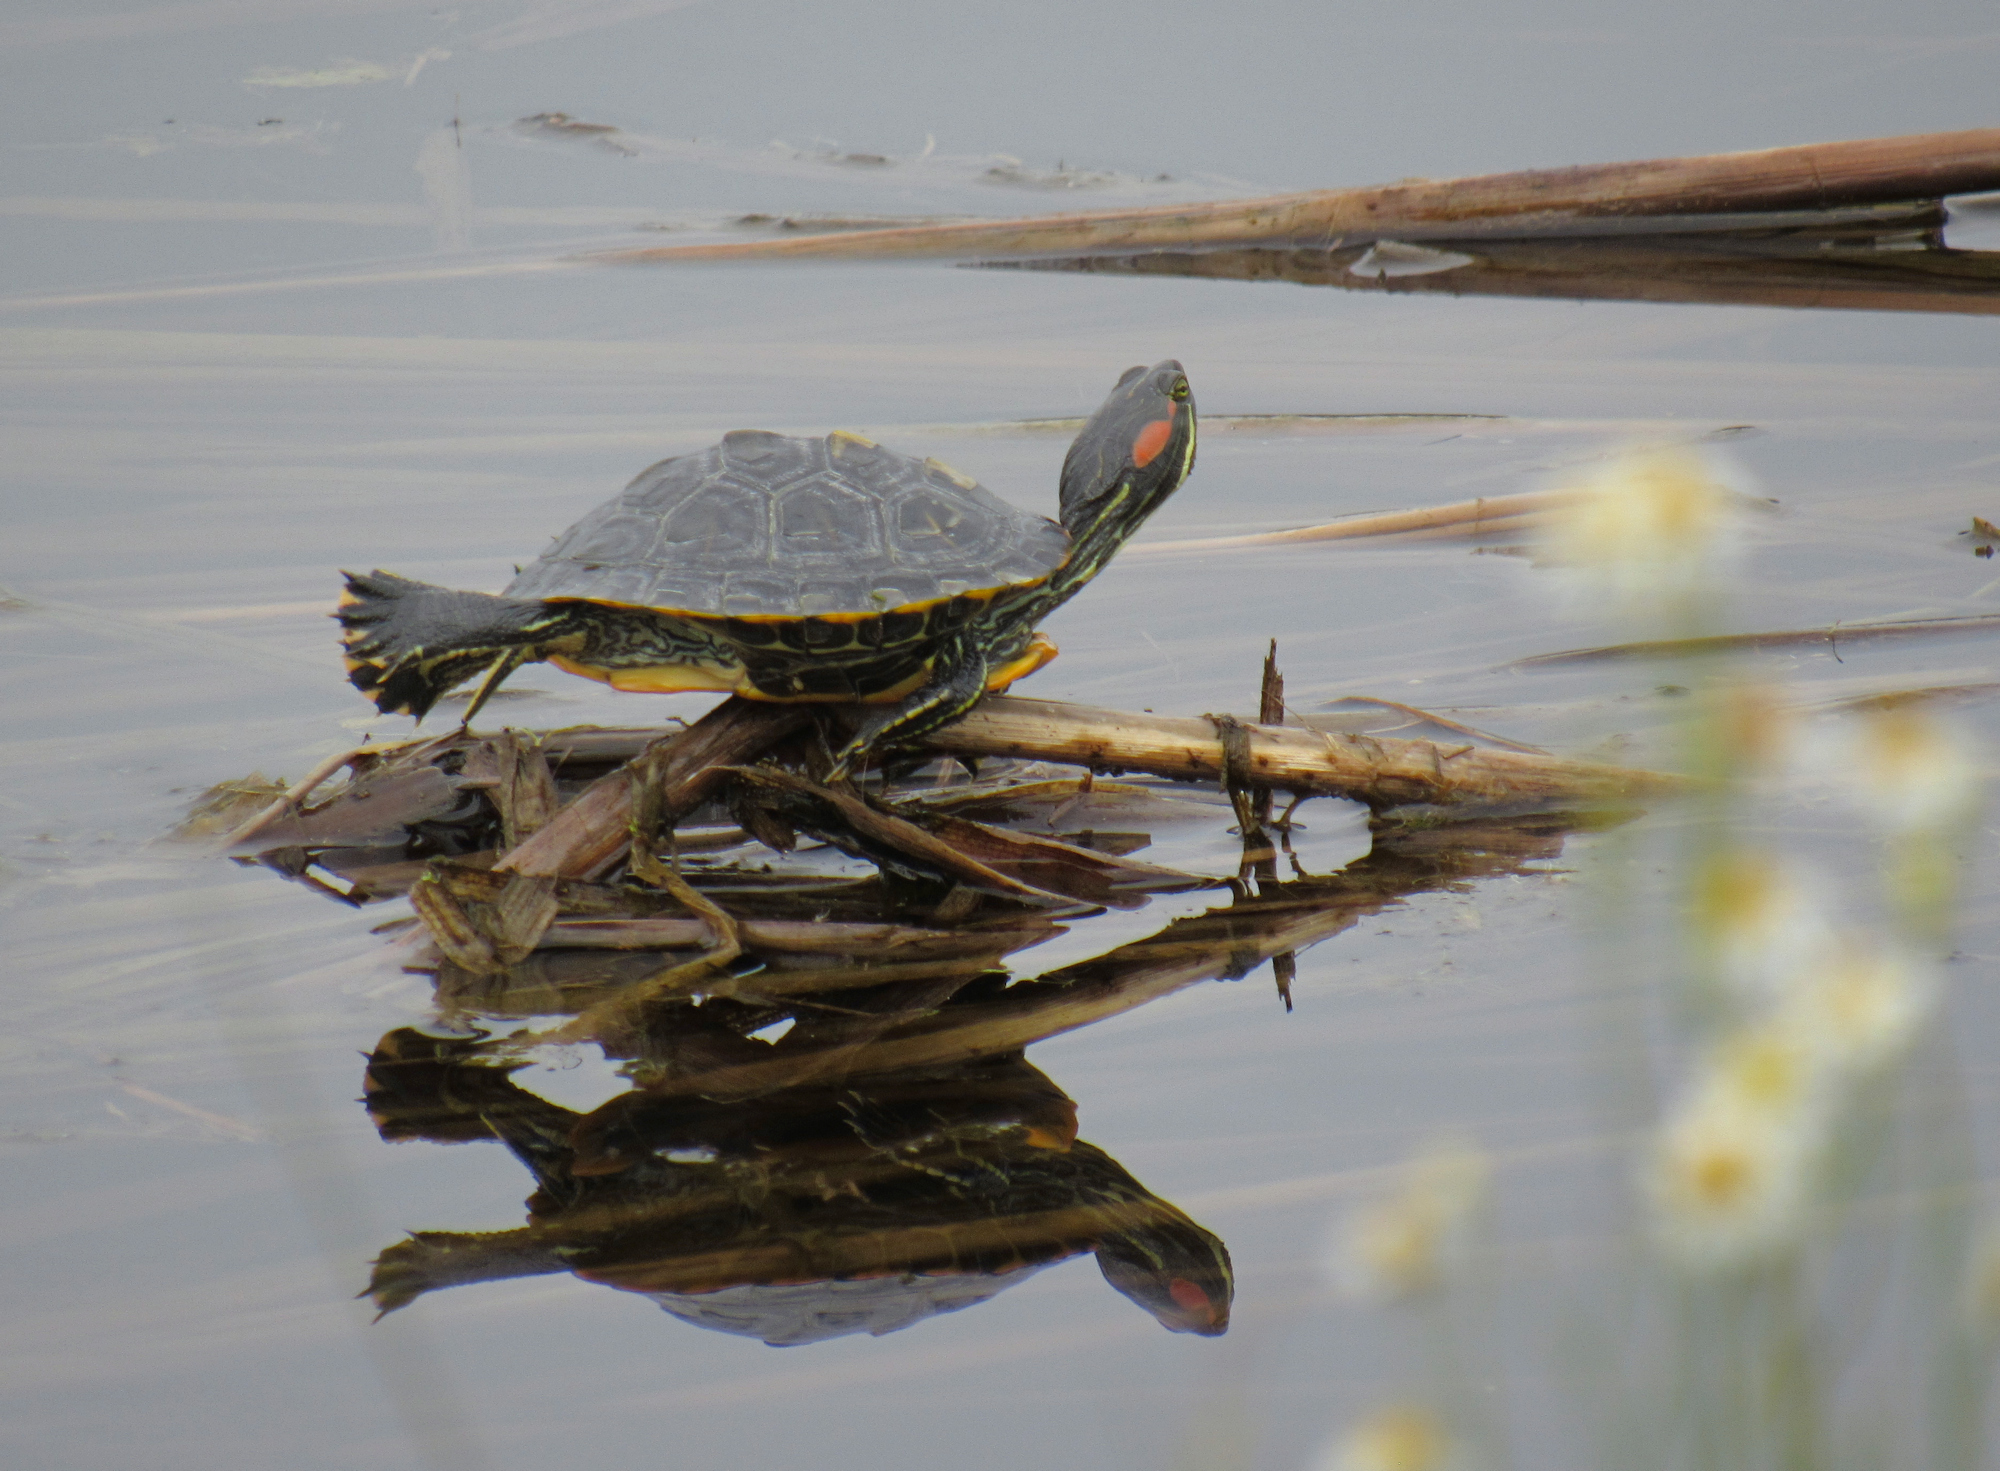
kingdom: Animalia
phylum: Chordata
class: Testudines
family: Emydidae
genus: Trachemys
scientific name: Trachemys scripta
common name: Slider
